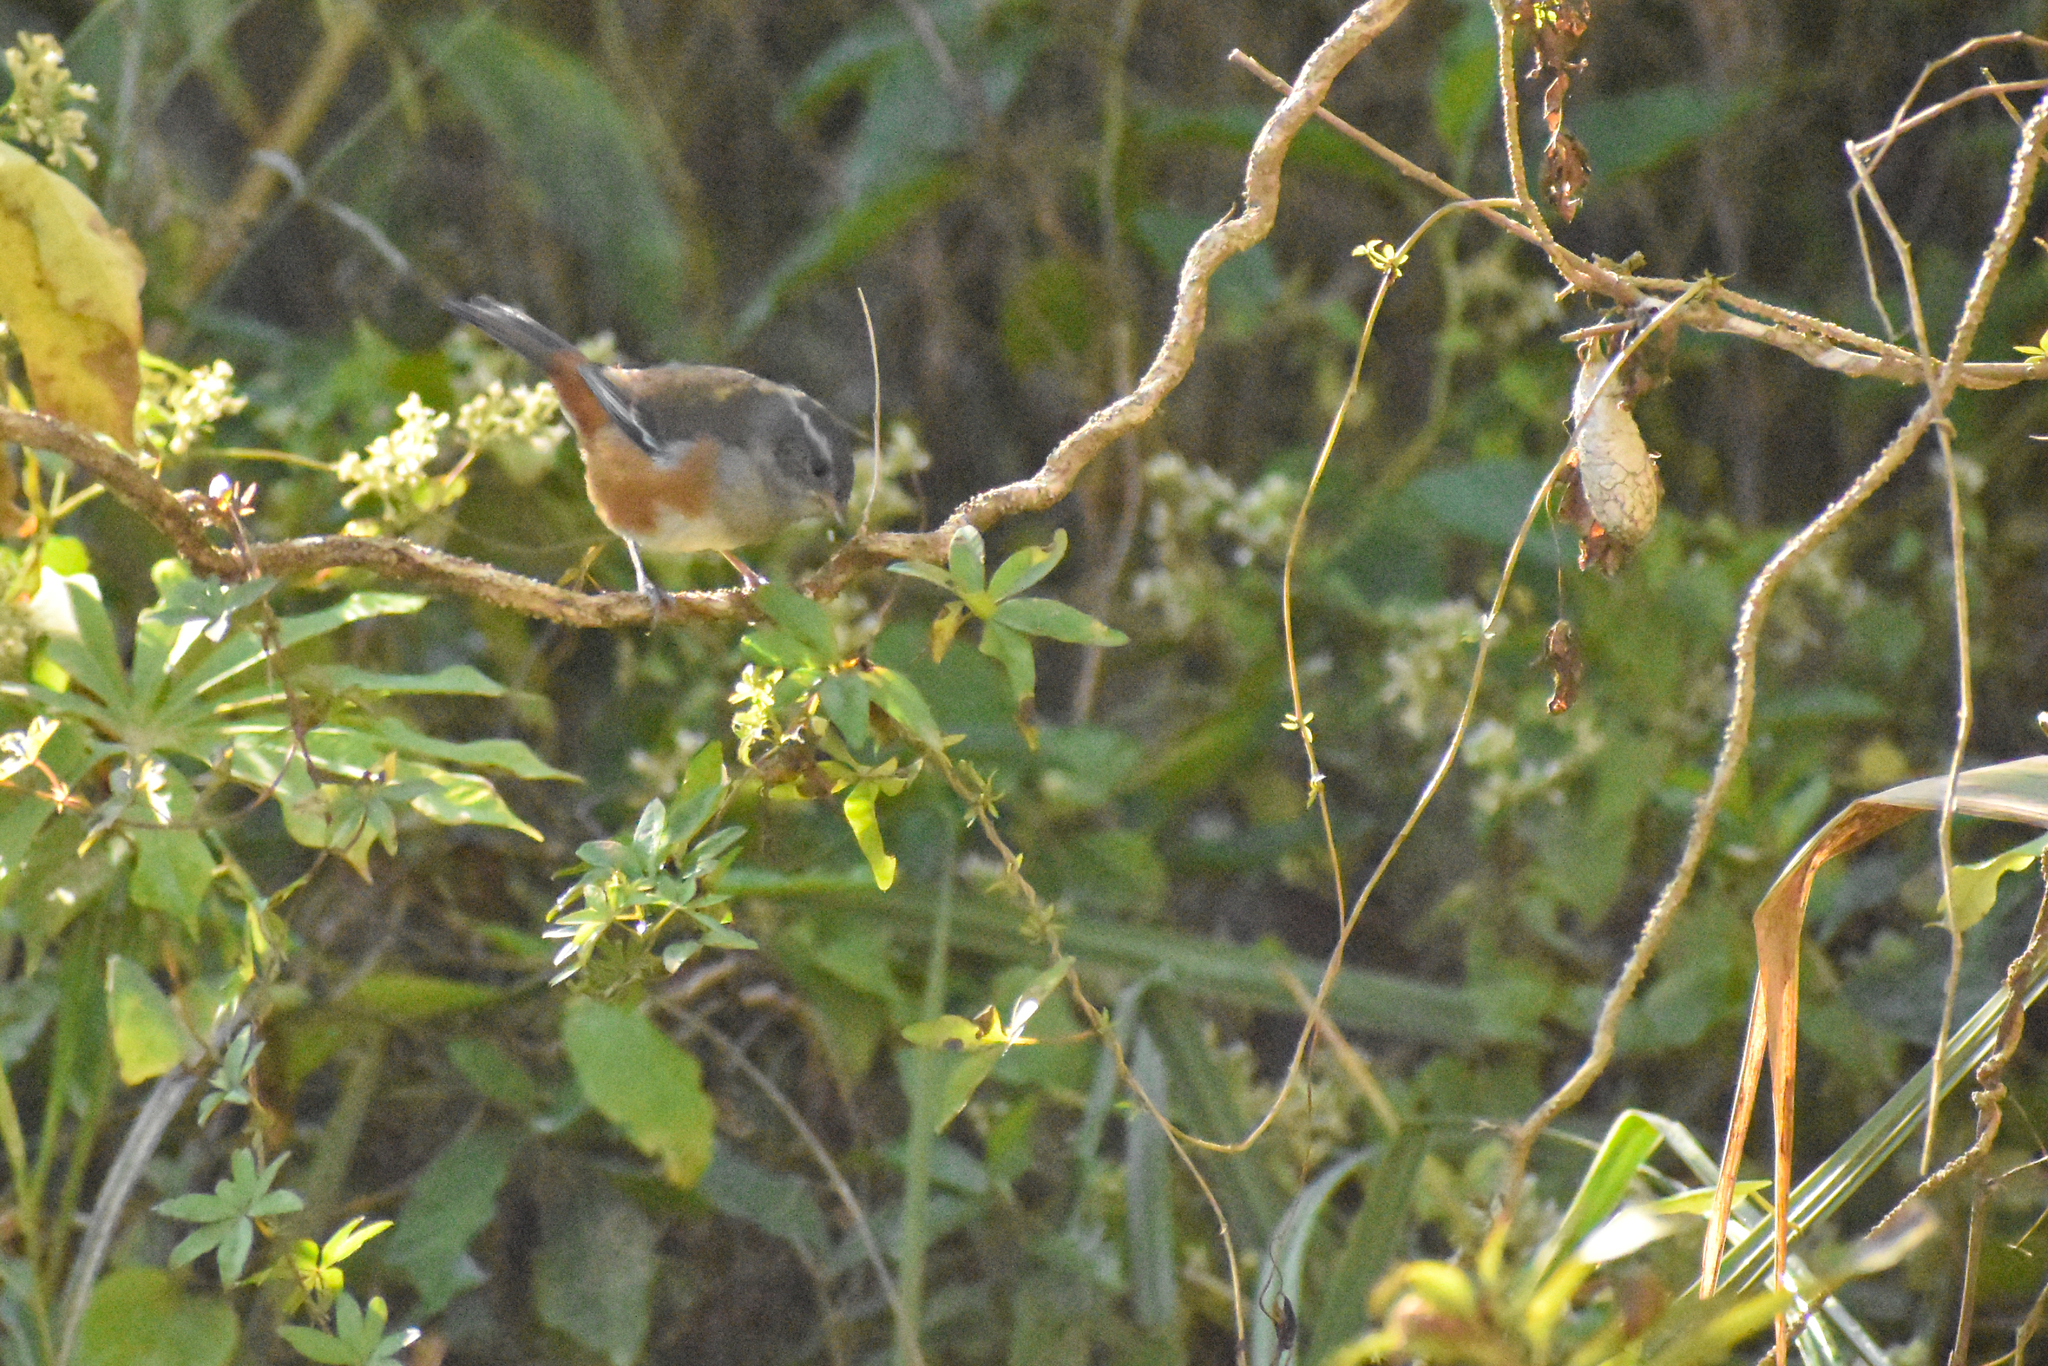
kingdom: Animalia
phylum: Chordata
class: Aves
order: Passeriformes
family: Thraupidae
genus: Microspingus
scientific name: Microspingus cabanisi
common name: Gray-throated warbling-finch
